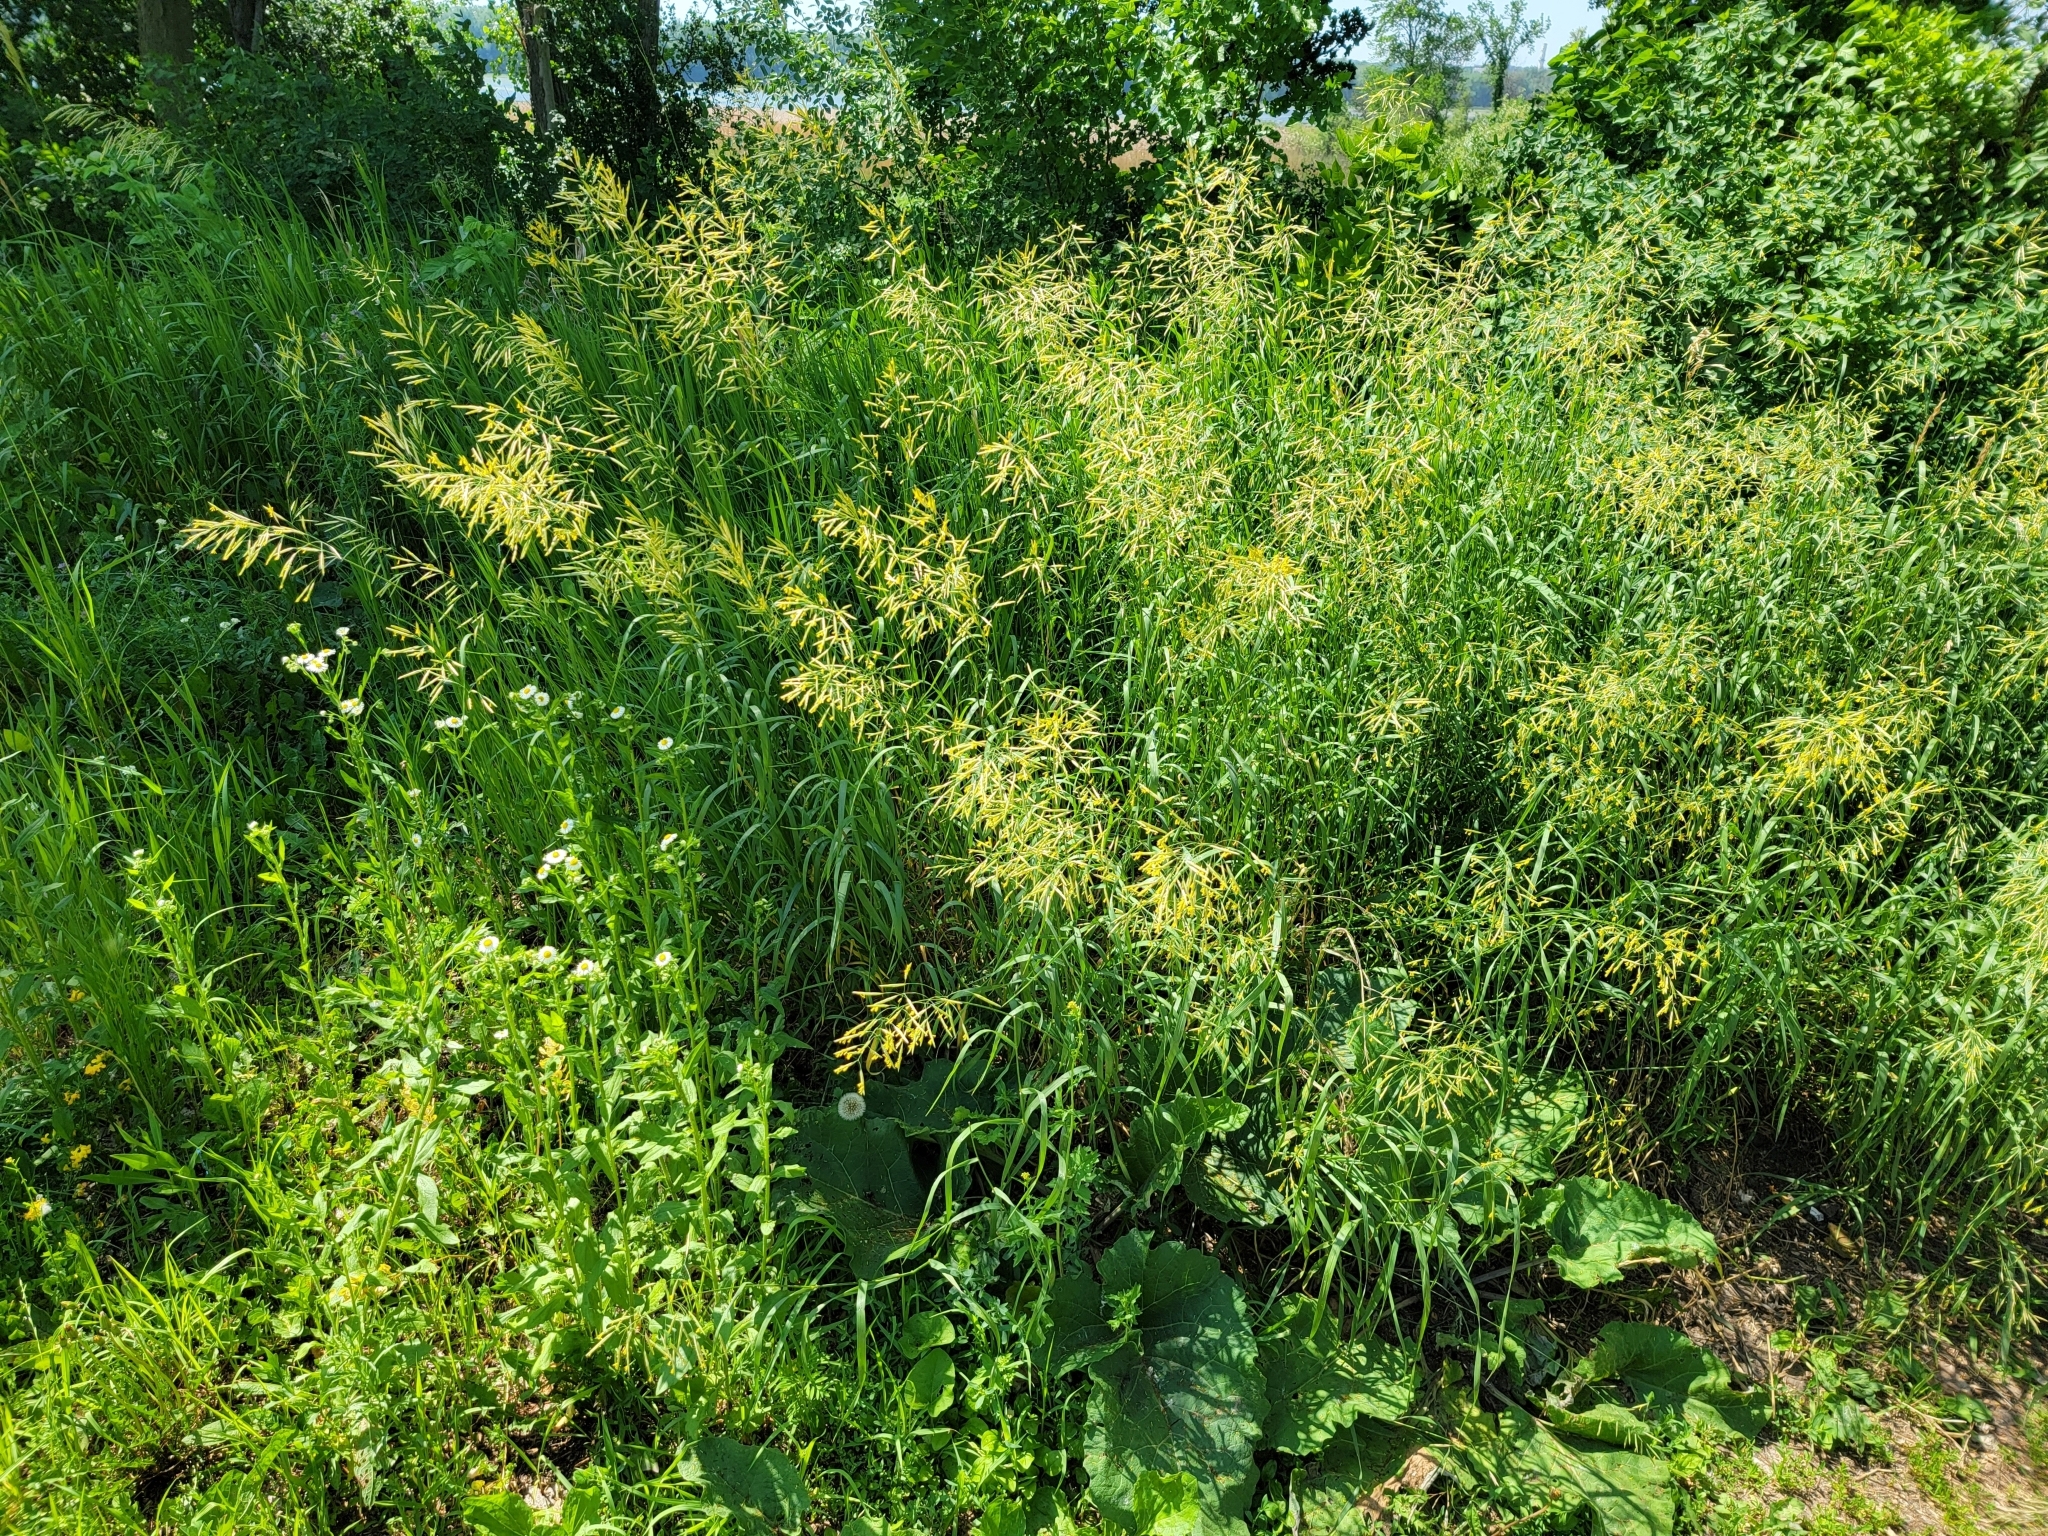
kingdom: Plantae
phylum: Tracheophyta
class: Liliopsida
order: Poales
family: Poaceae
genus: Bromus
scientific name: Bromus inermis
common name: Smooth brome
